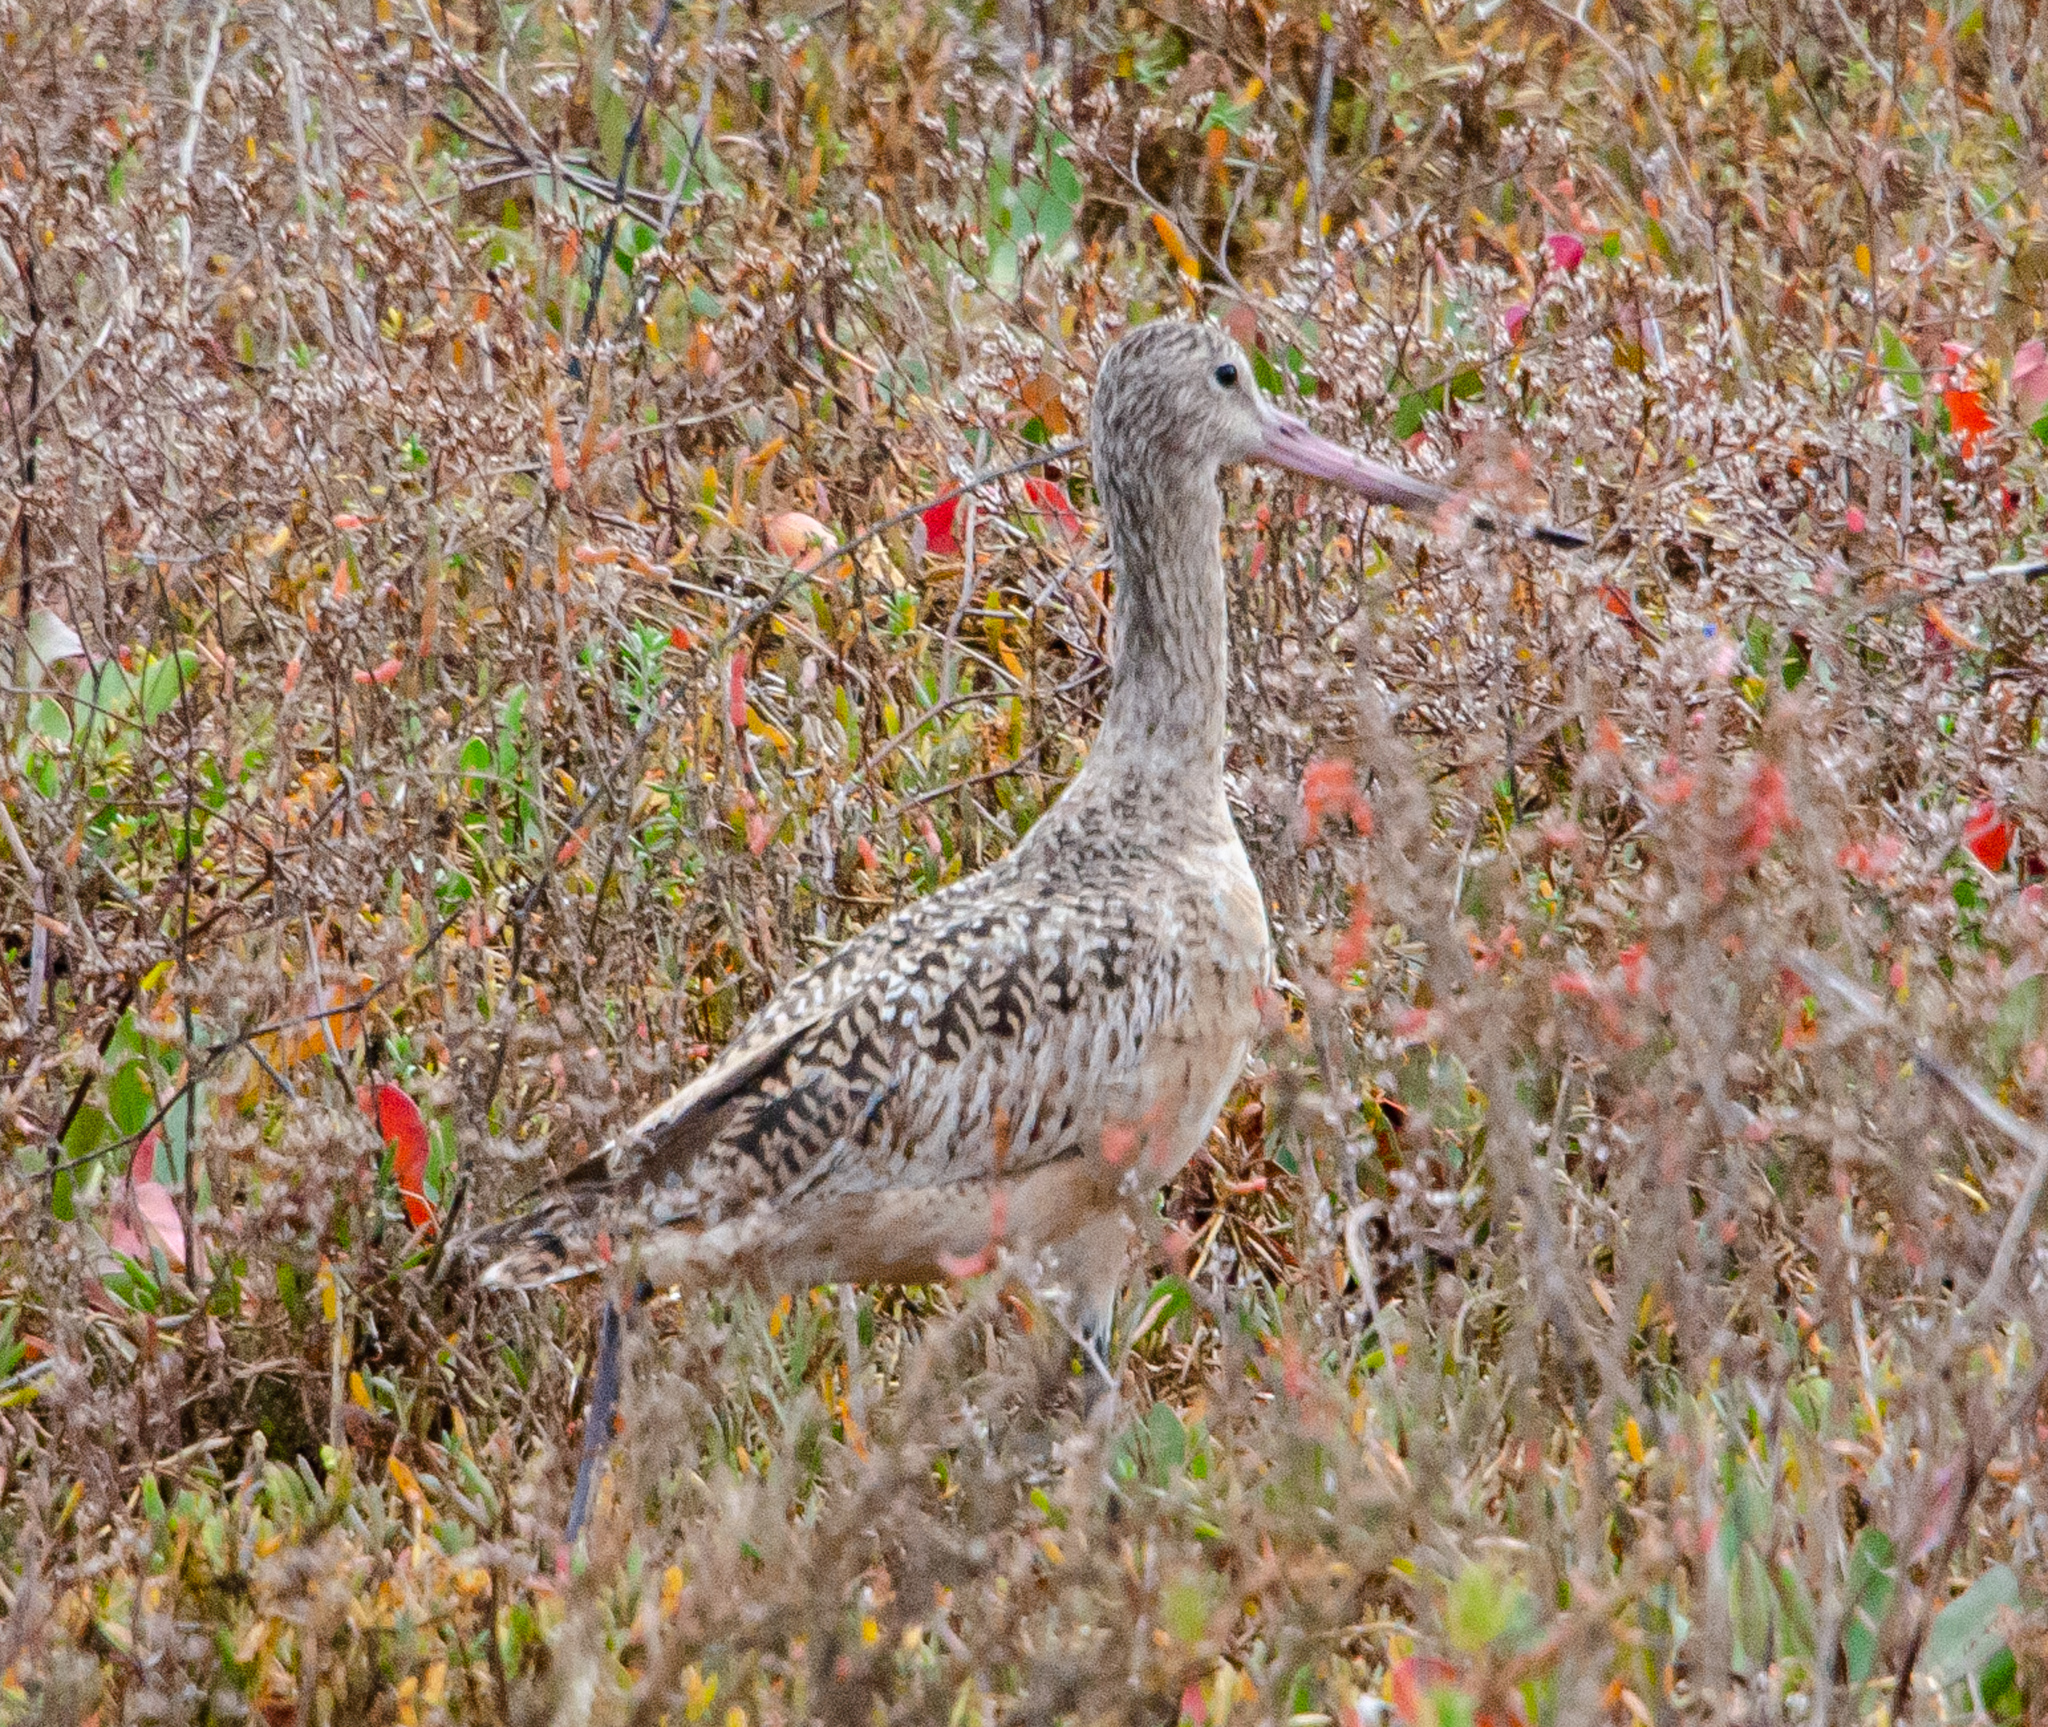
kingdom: Animalia
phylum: Chordata
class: Aves
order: Charadriiformes
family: Scolopacidae
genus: Limosa
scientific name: Limosa fedoa
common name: Marbled godwit
